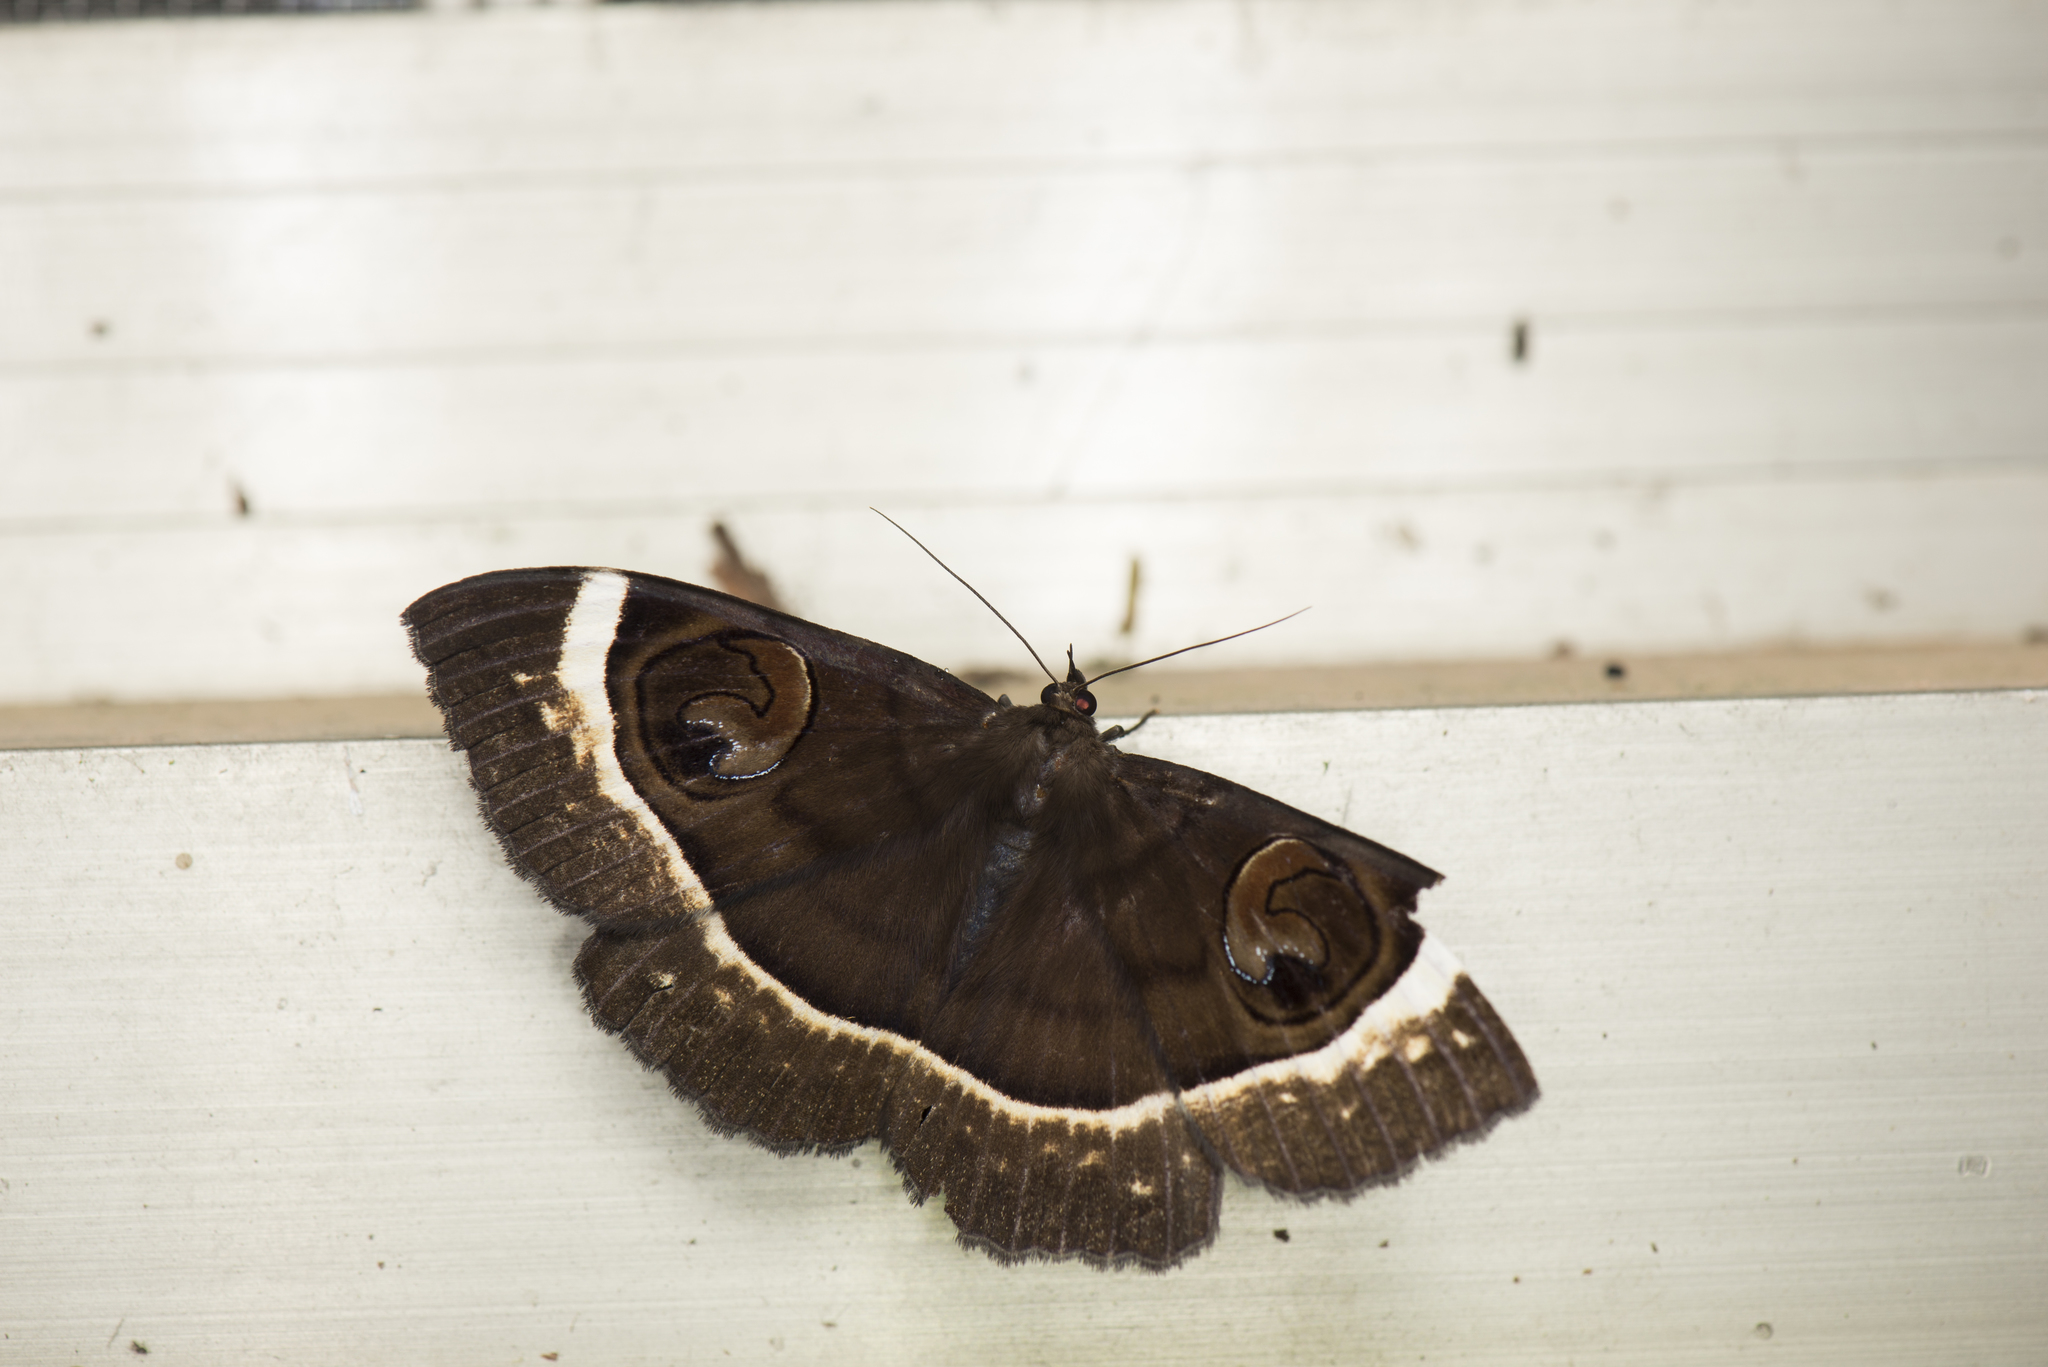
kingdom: Animalia
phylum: Arthropoda
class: Insecta
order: Lepidoptera
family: Erebidae
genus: Erebus
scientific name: Erebus gemmans
